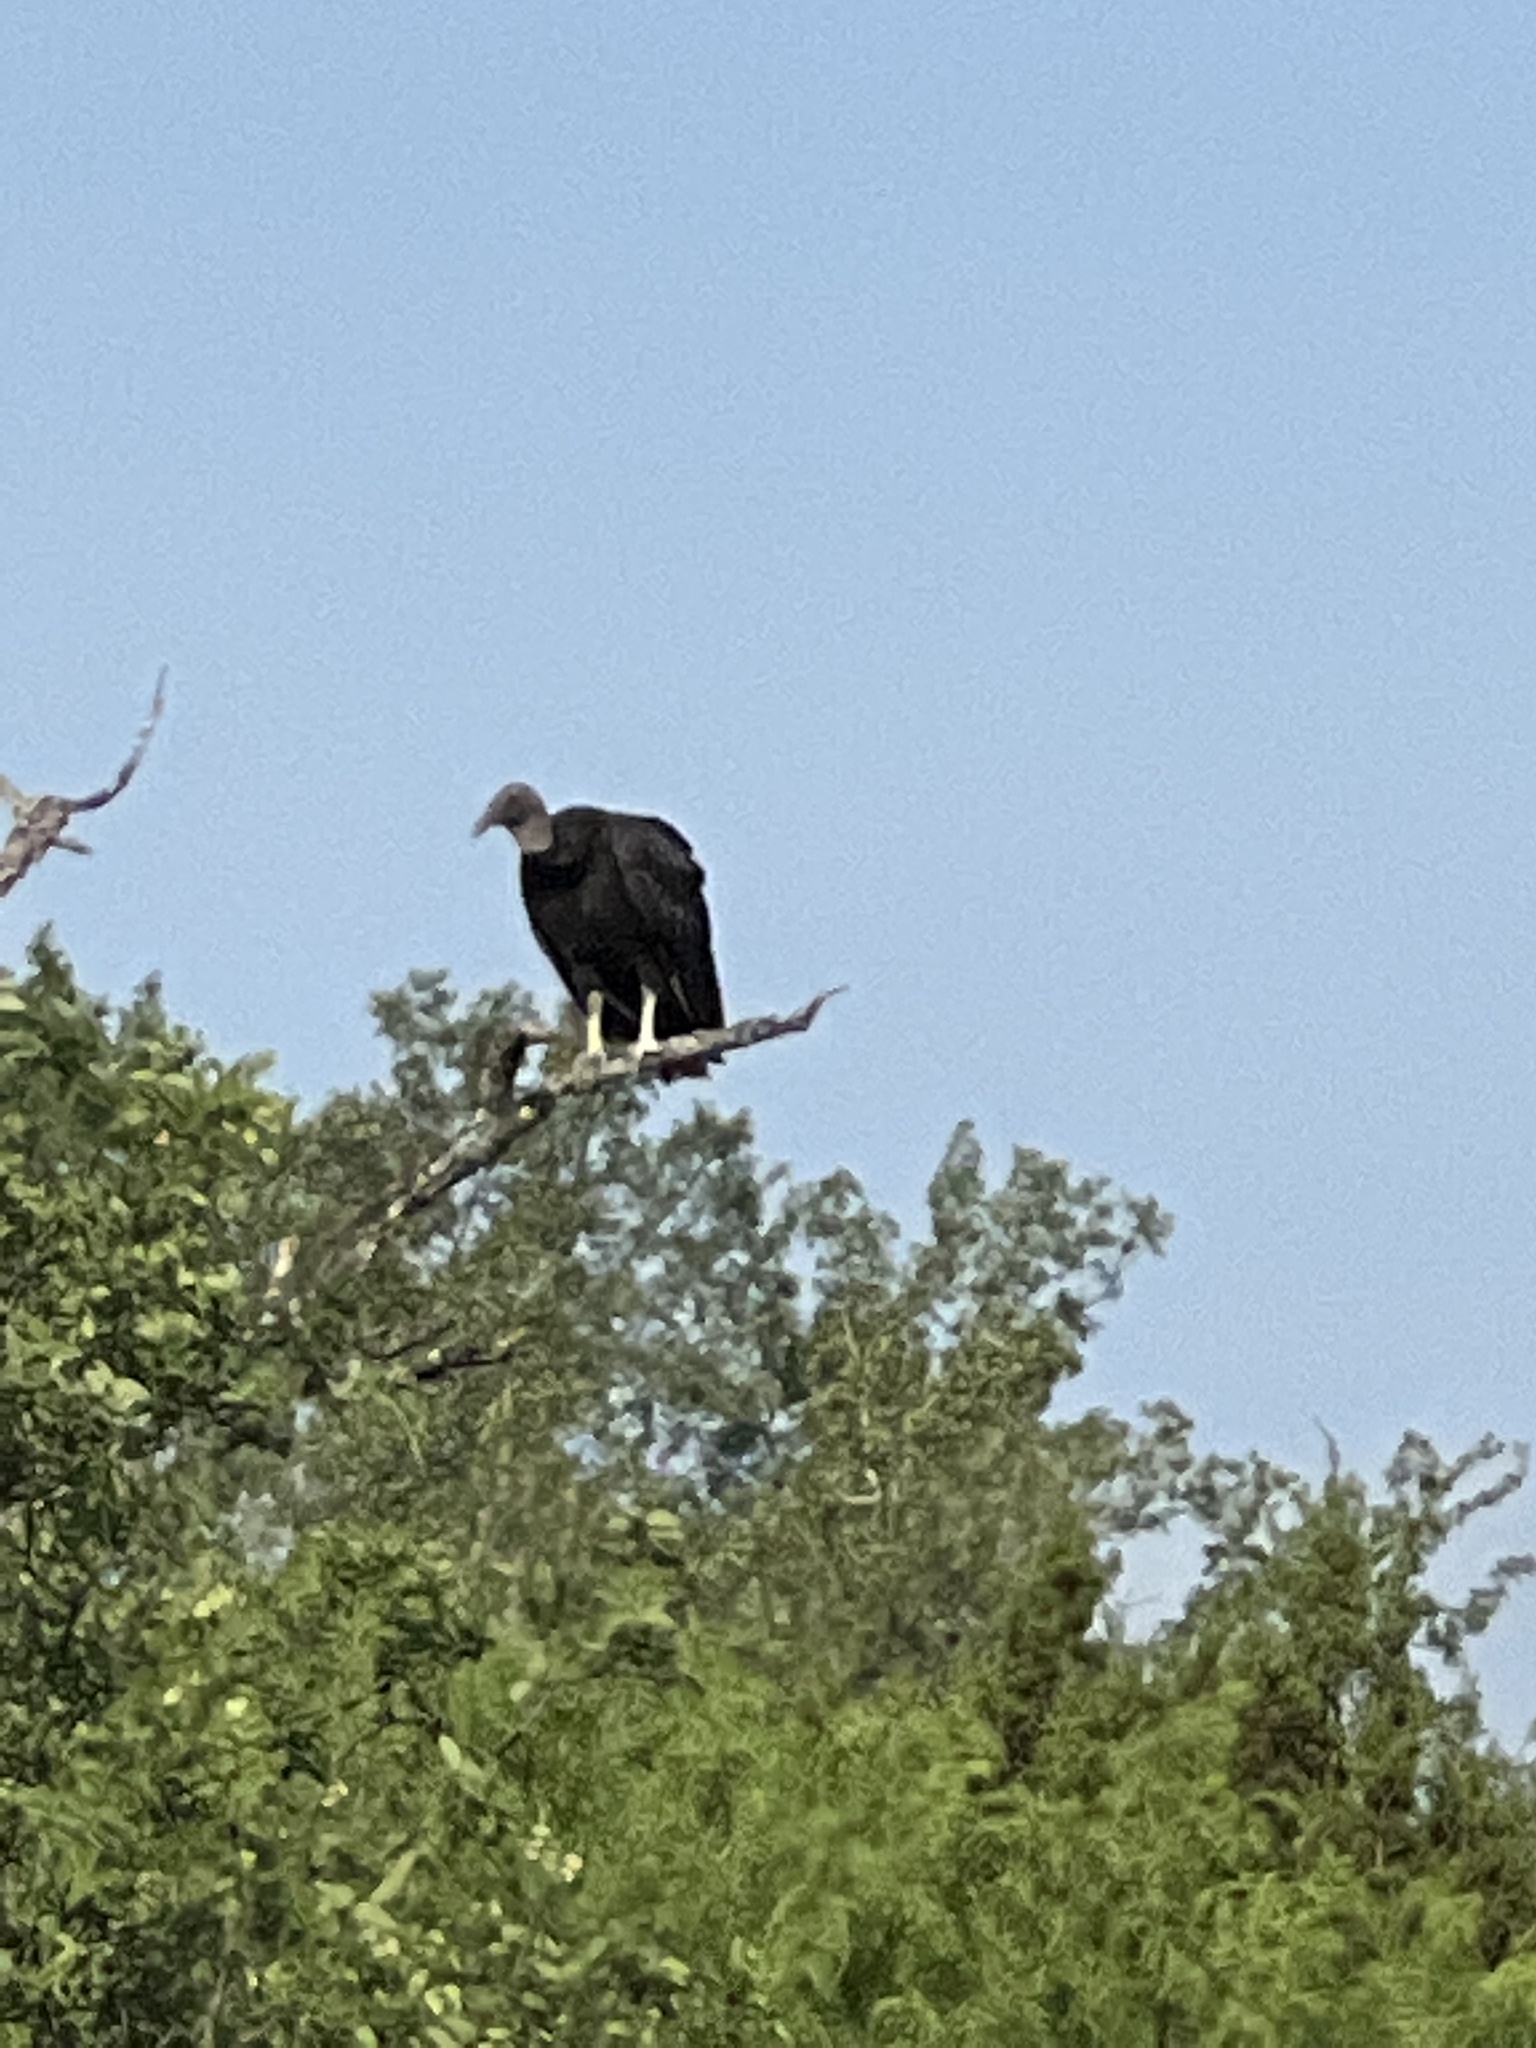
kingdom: Animalia
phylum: Chordata
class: Aves
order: Accipitriformes
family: Cathartidae
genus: Coragyps
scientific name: Coragyps atratus
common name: Black vulture
